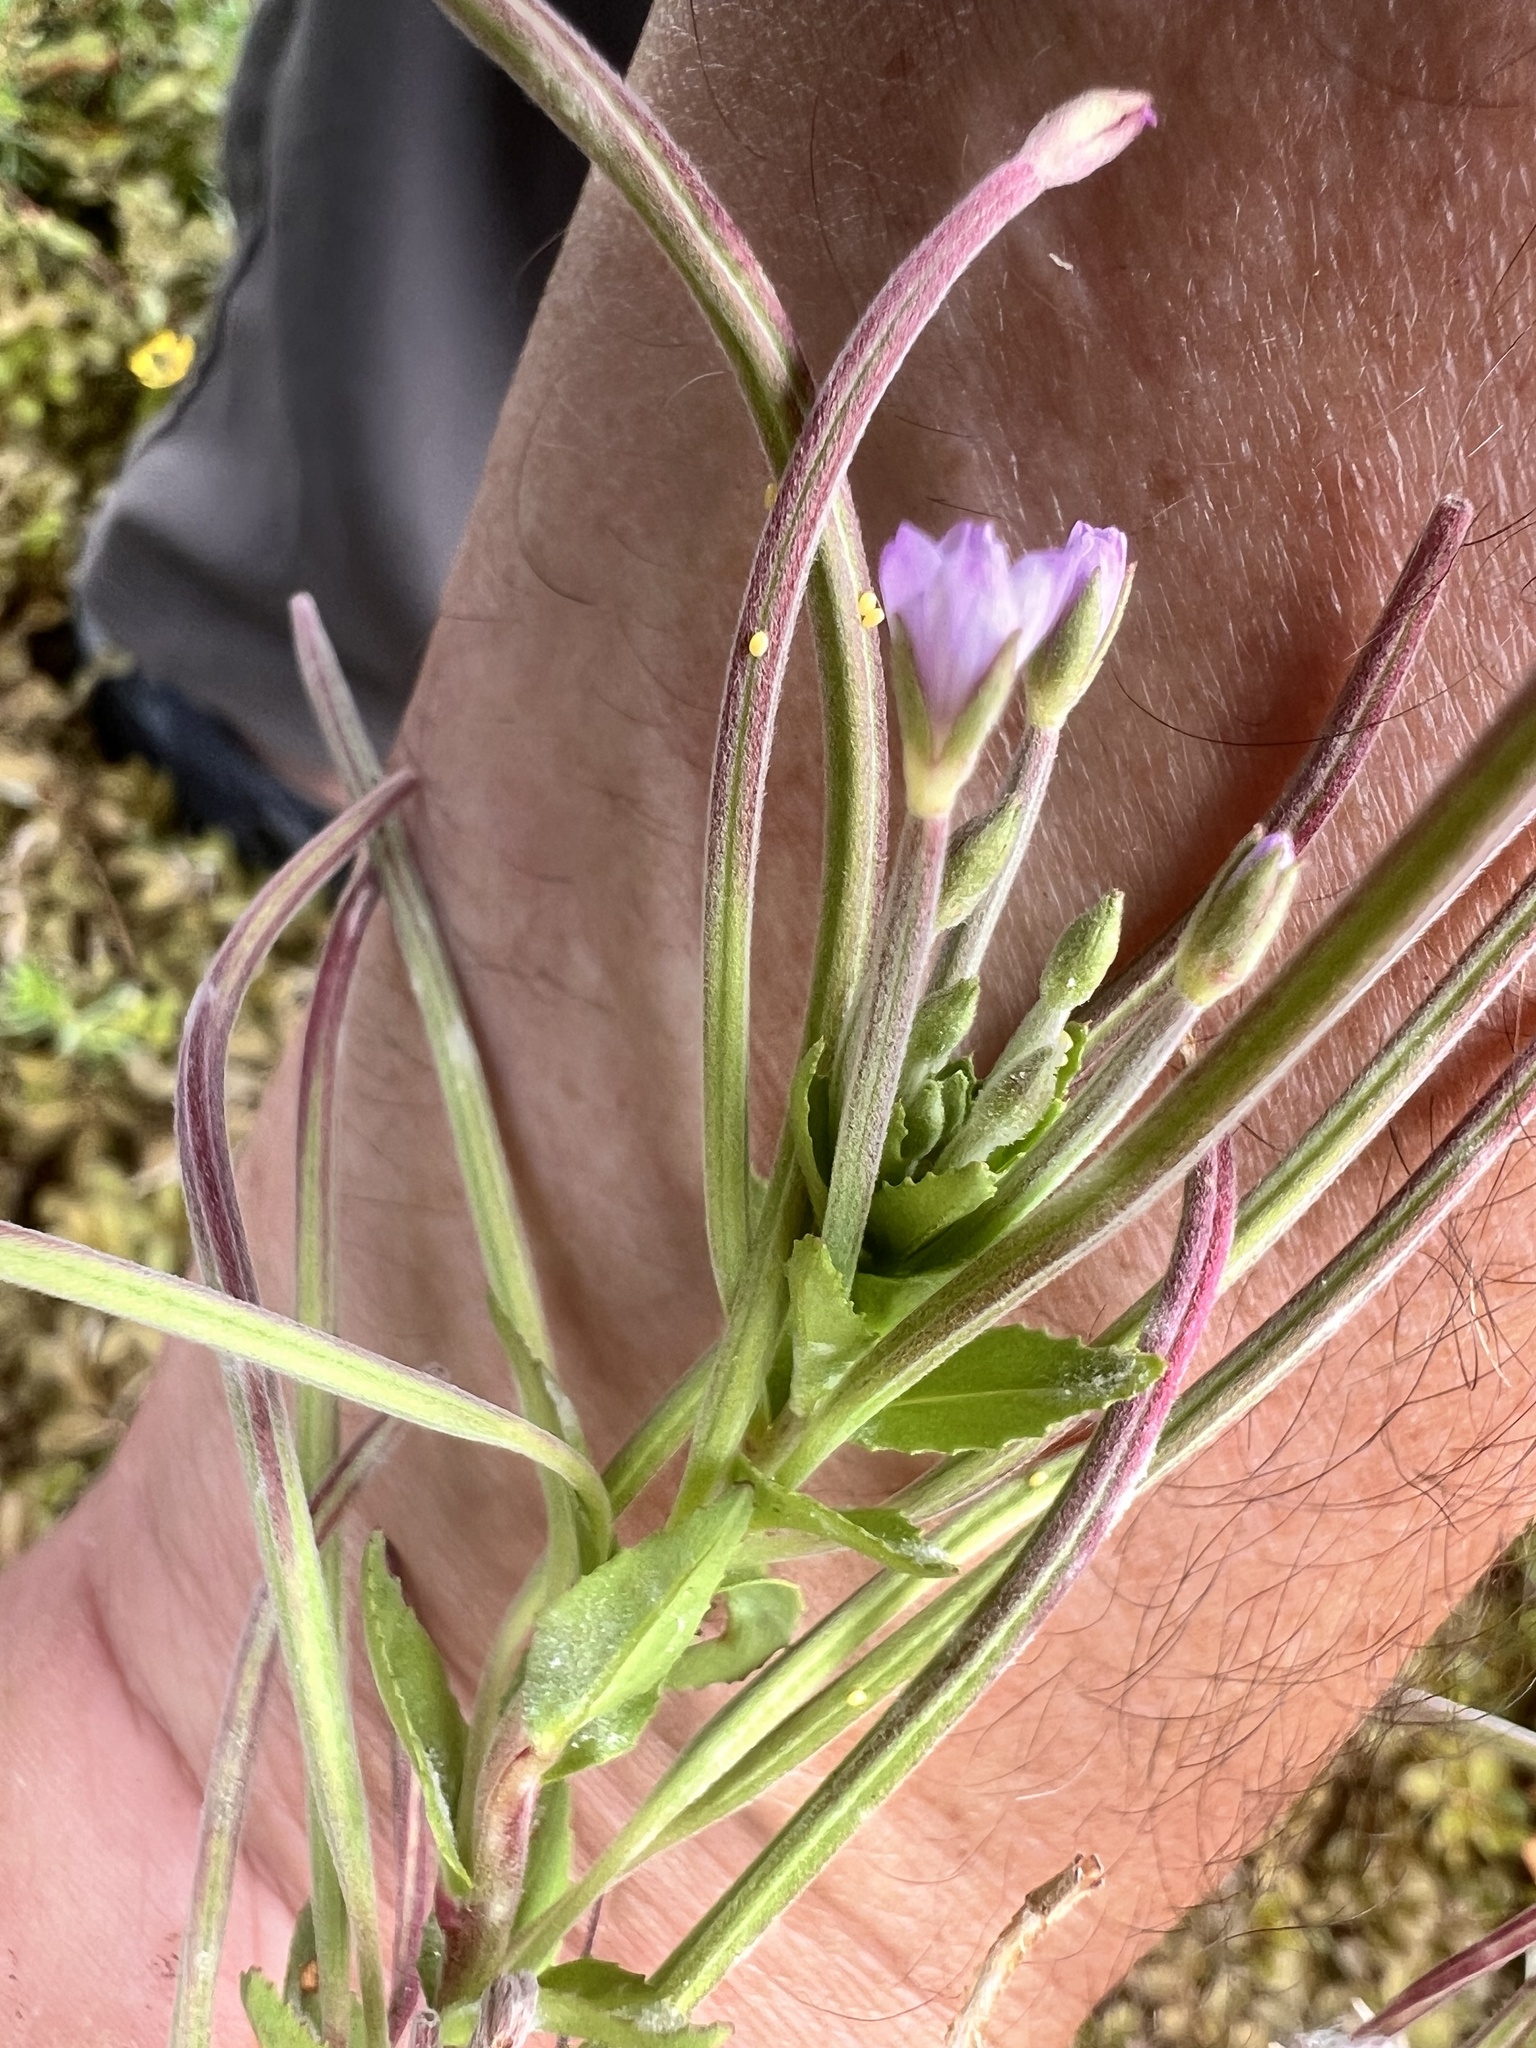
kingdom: Plantae
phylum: Tracheophyta
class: Magnoliopsida
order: Myrtales
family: Onagraceae
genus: Epilobium
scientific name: Epilobium billardierianum
